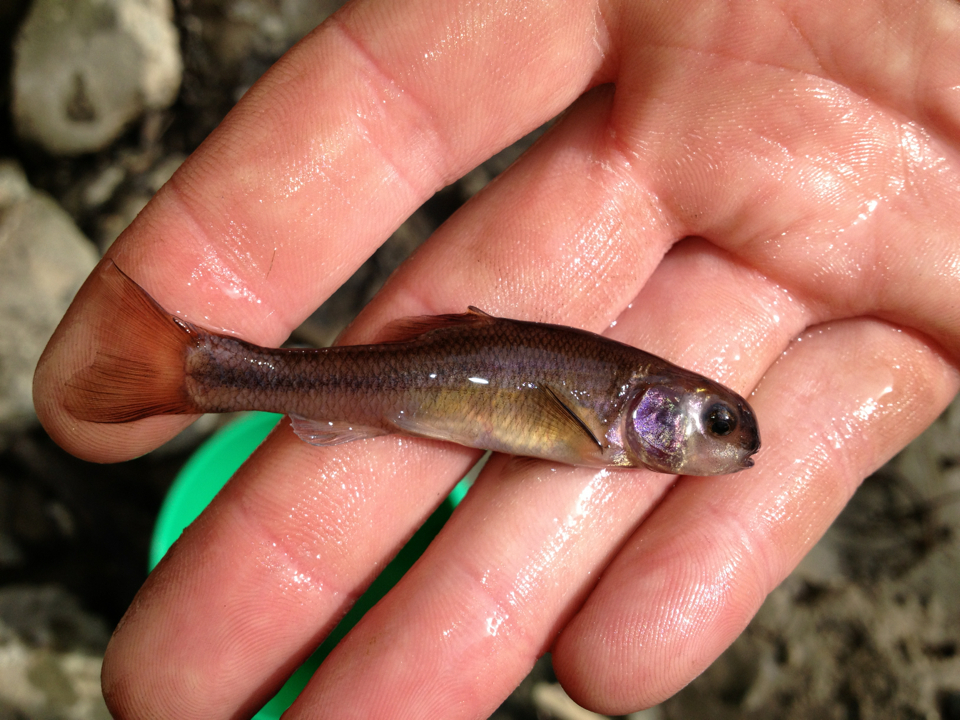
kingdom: Animalia
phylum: Chordata
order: Cypriniformes
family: Cyprinidae
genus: Pimephales
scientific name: Pimephales promelas
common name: Fathead minnow
